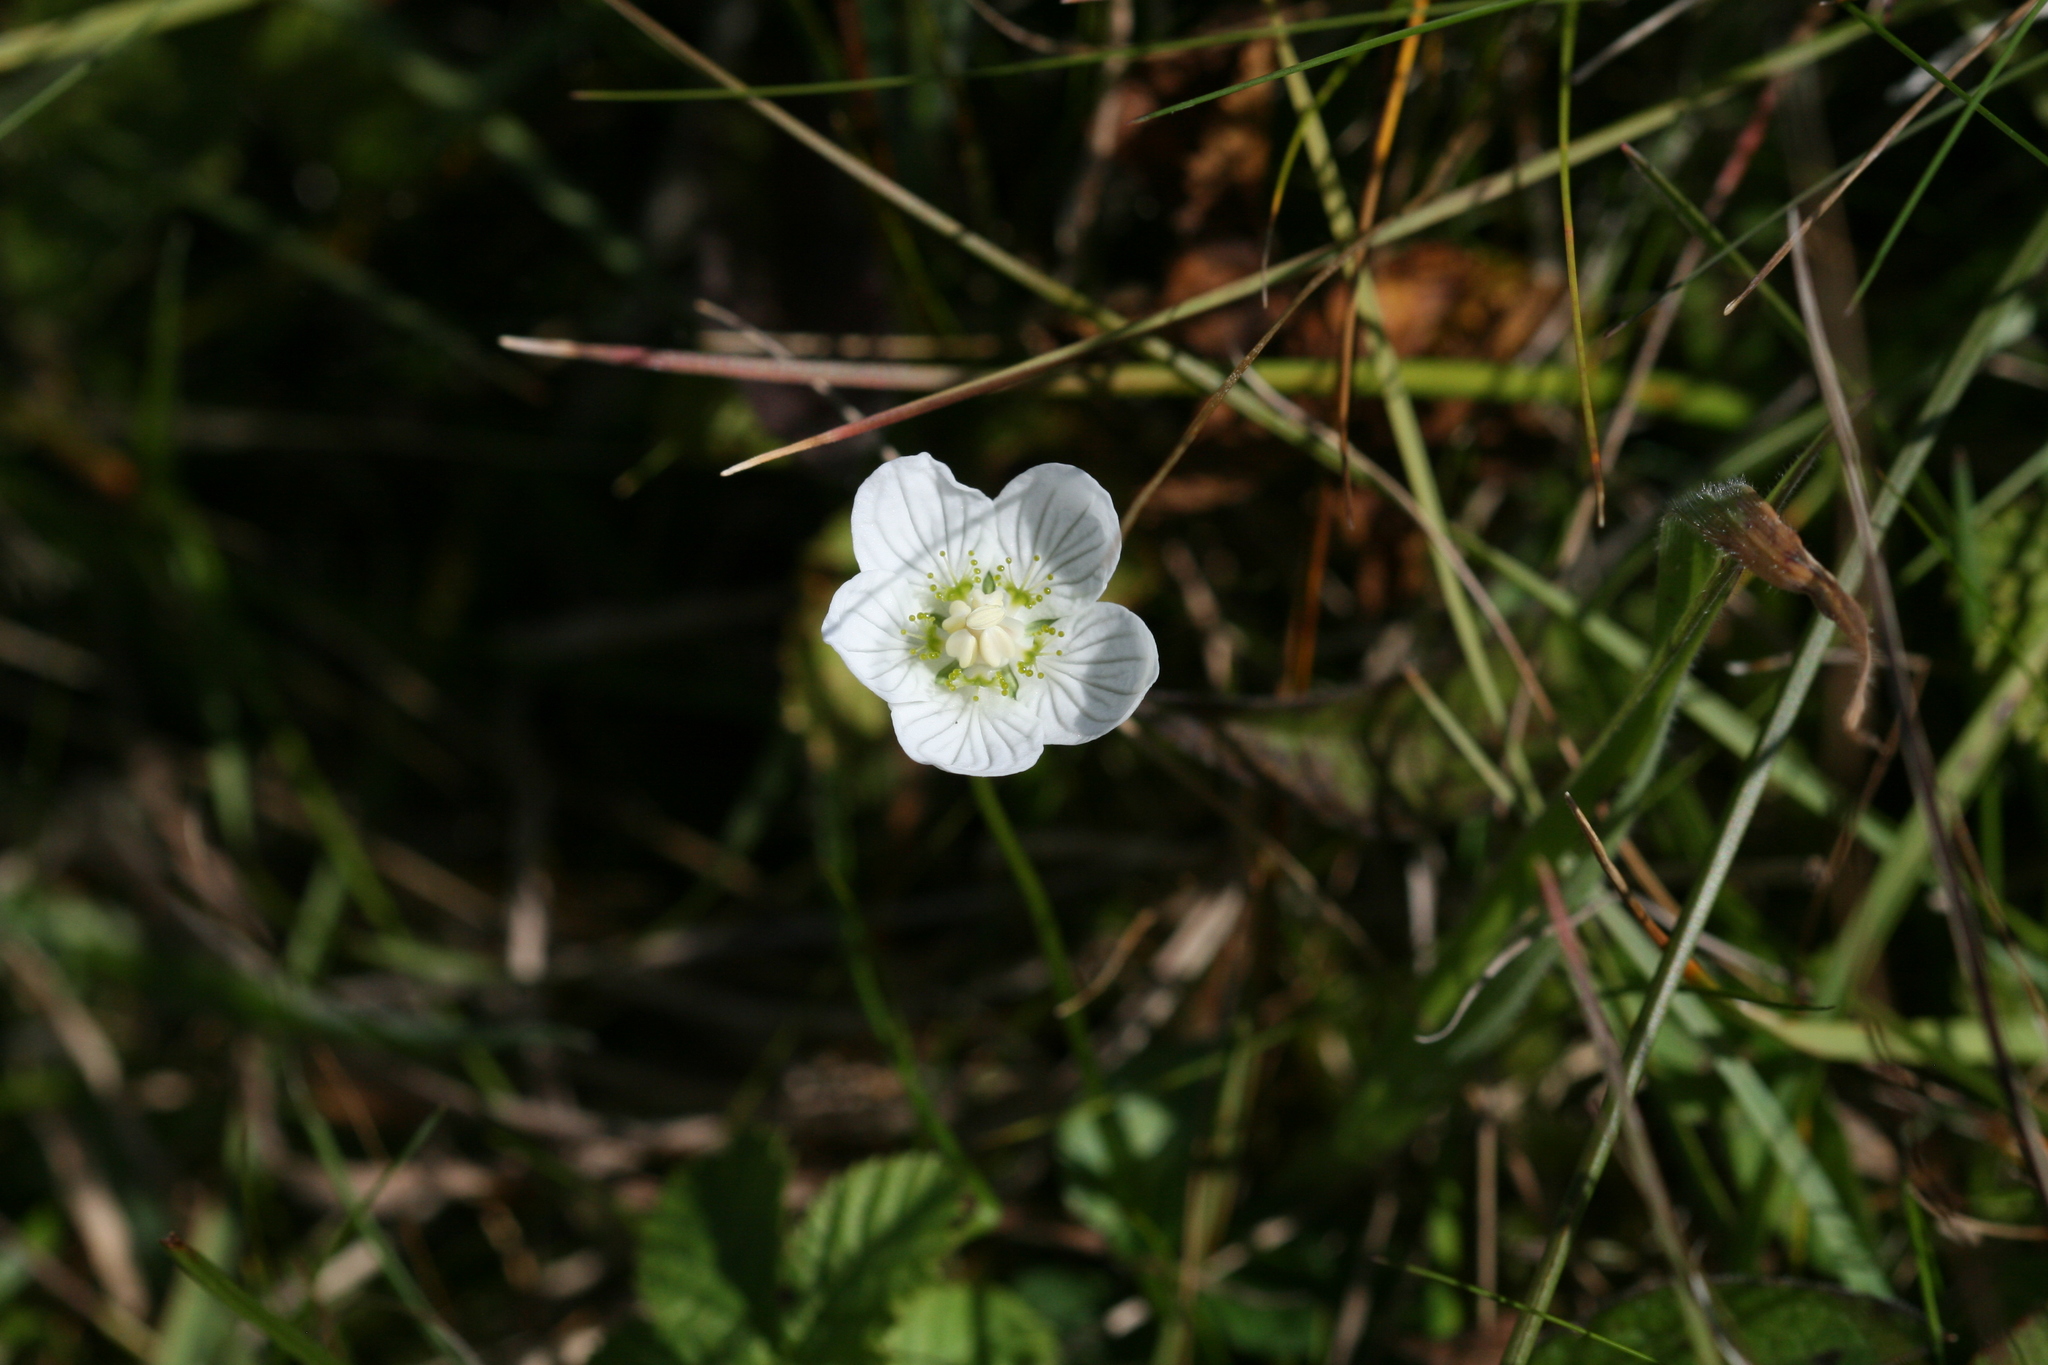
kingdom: Plantae
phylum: Tracheophyta
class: Magnoliopsida
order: Celastrales
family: Parnassiaceae
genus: Parnassia
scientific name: Parnassia palustris
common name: Grass-of-parnassus
